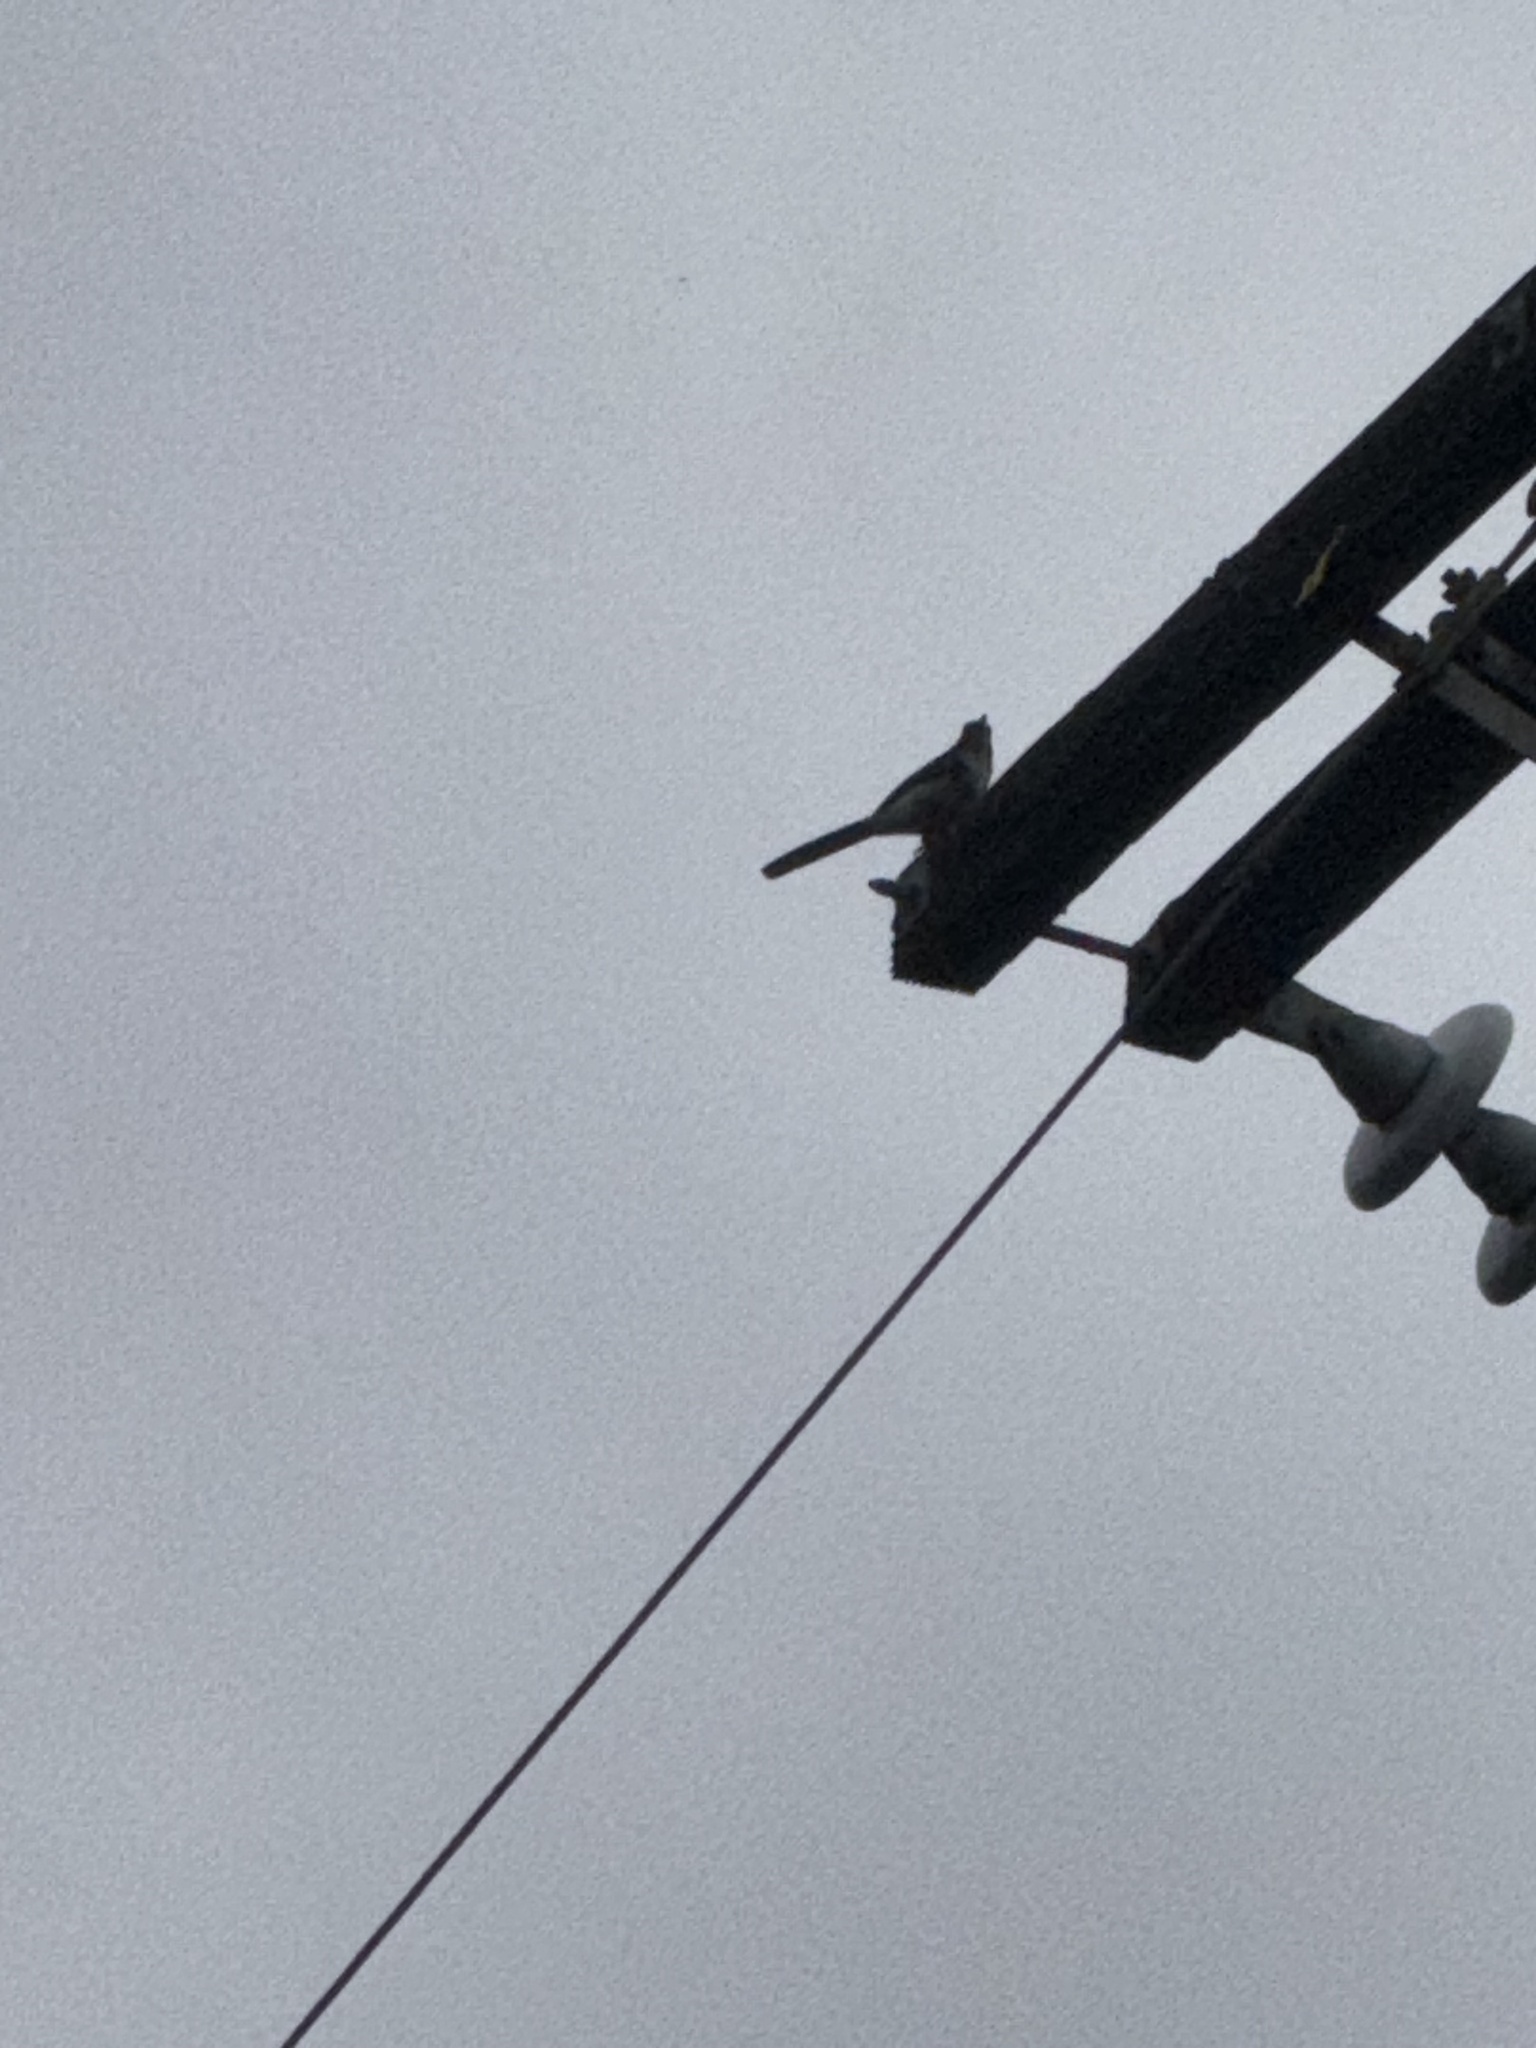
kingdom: Animalia
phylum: Chordata
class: Aves
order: Passeriformes
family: Corvidae
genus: Aphelocoma
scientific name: Aphelocoma californica
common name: California scrub-jay
